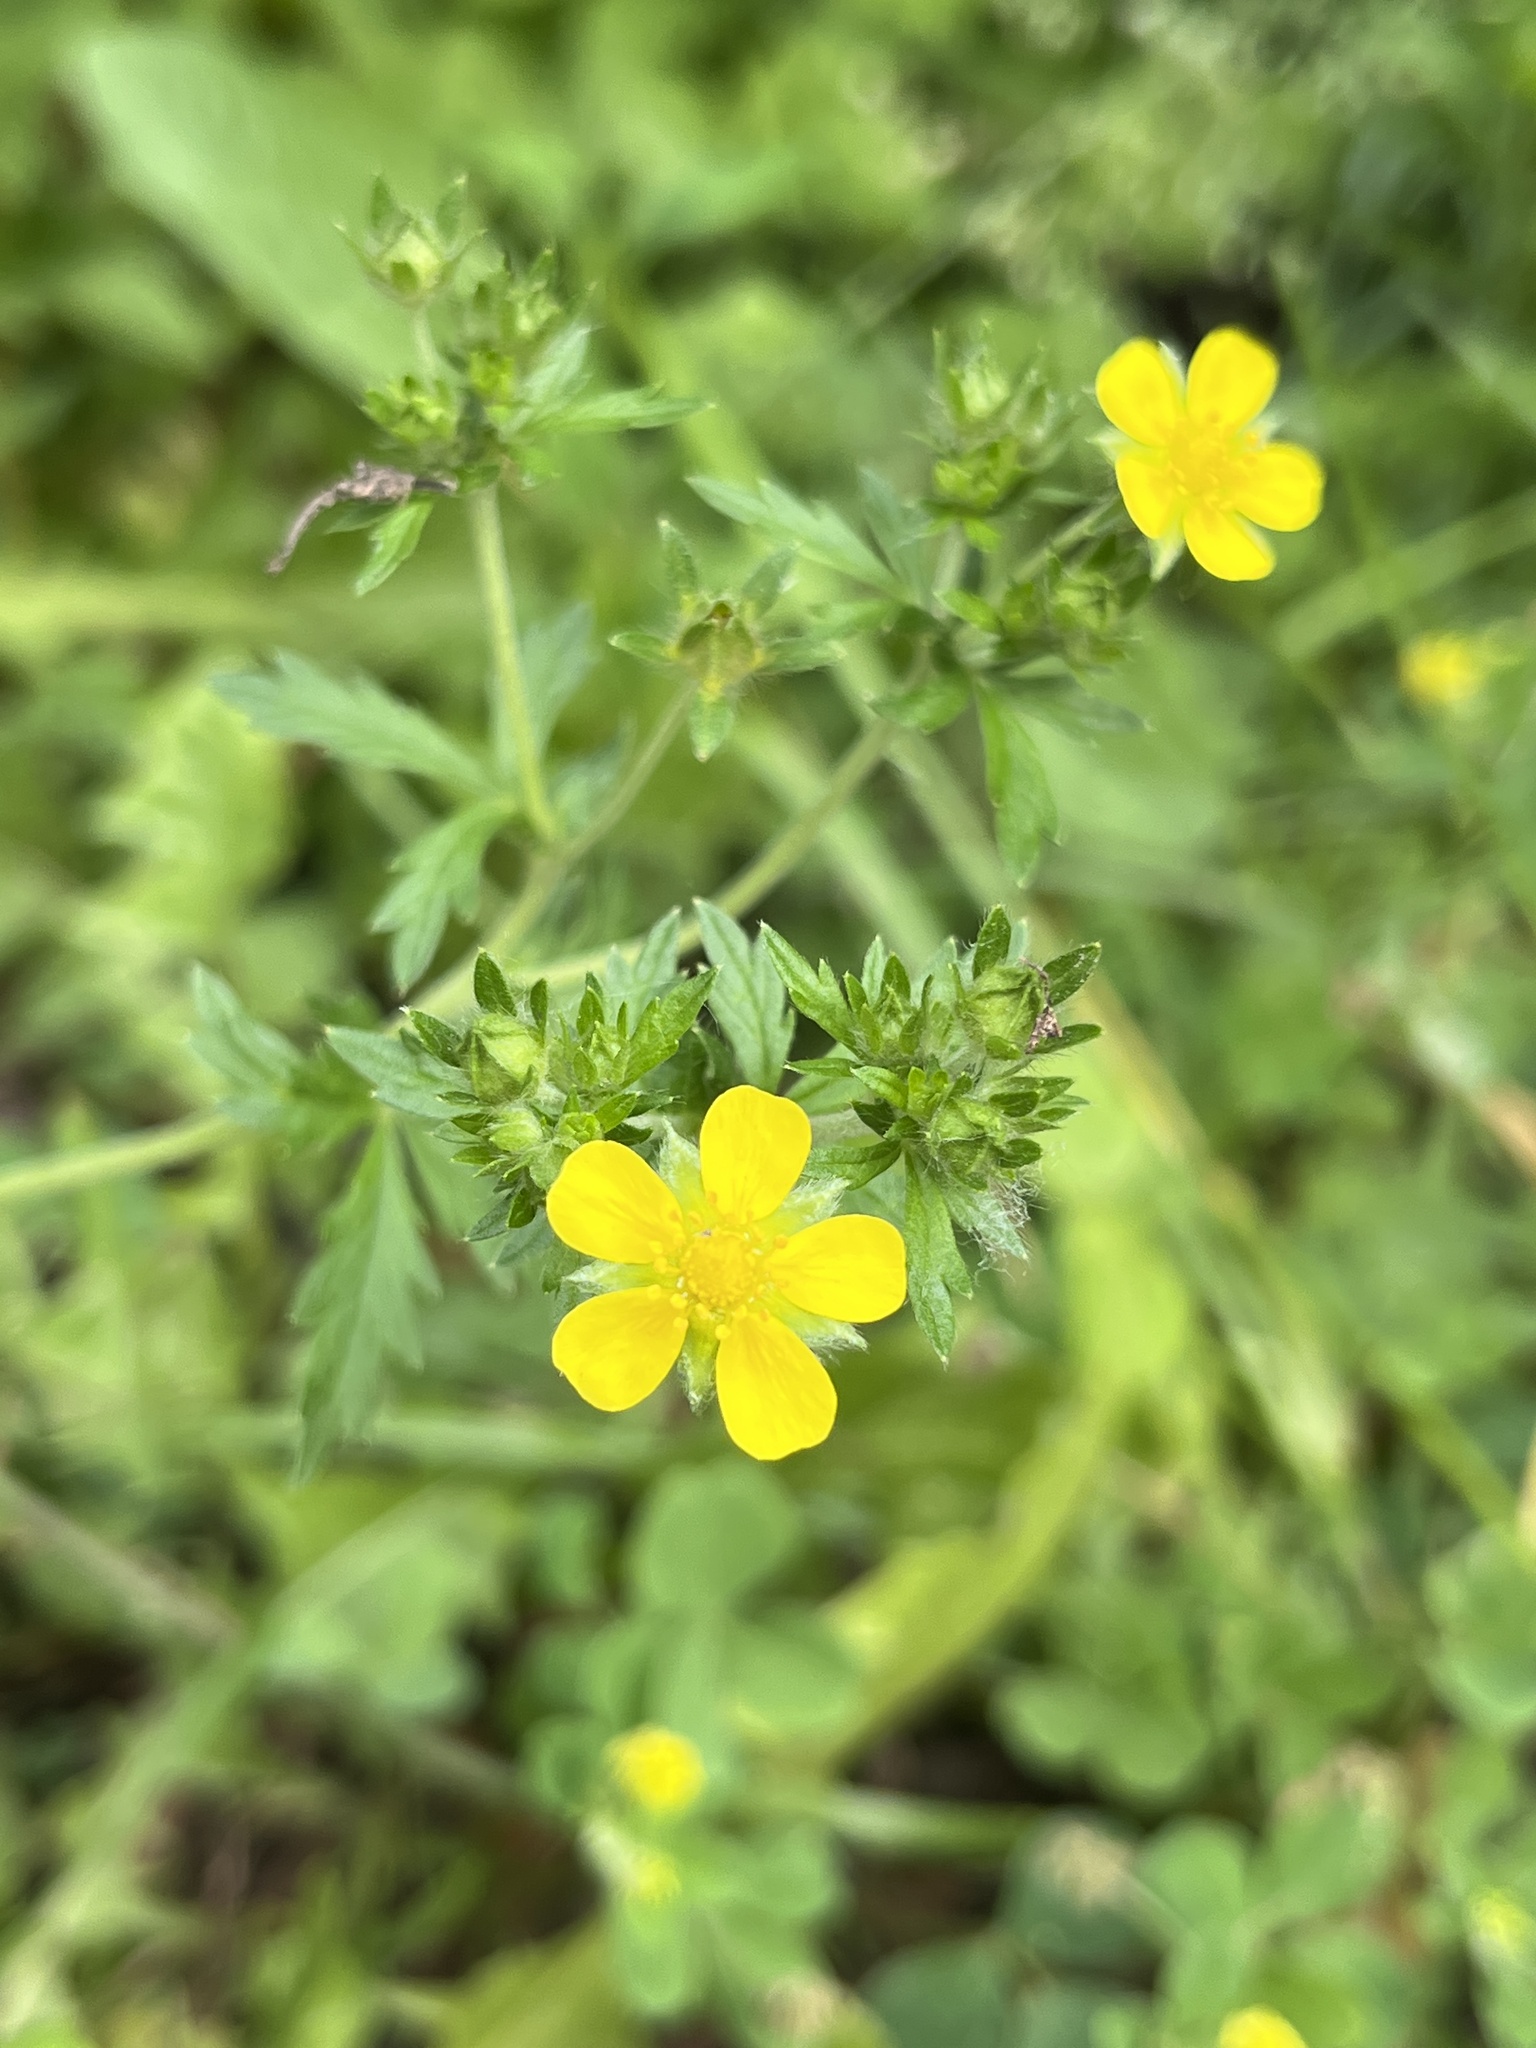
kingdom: Plantae
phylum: Tracheophyta
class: Magnoliopsida
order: Rosales
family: Rosaceae
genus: Potentilla
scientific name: Potentilla intermedia
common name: Downy cinquefoil
